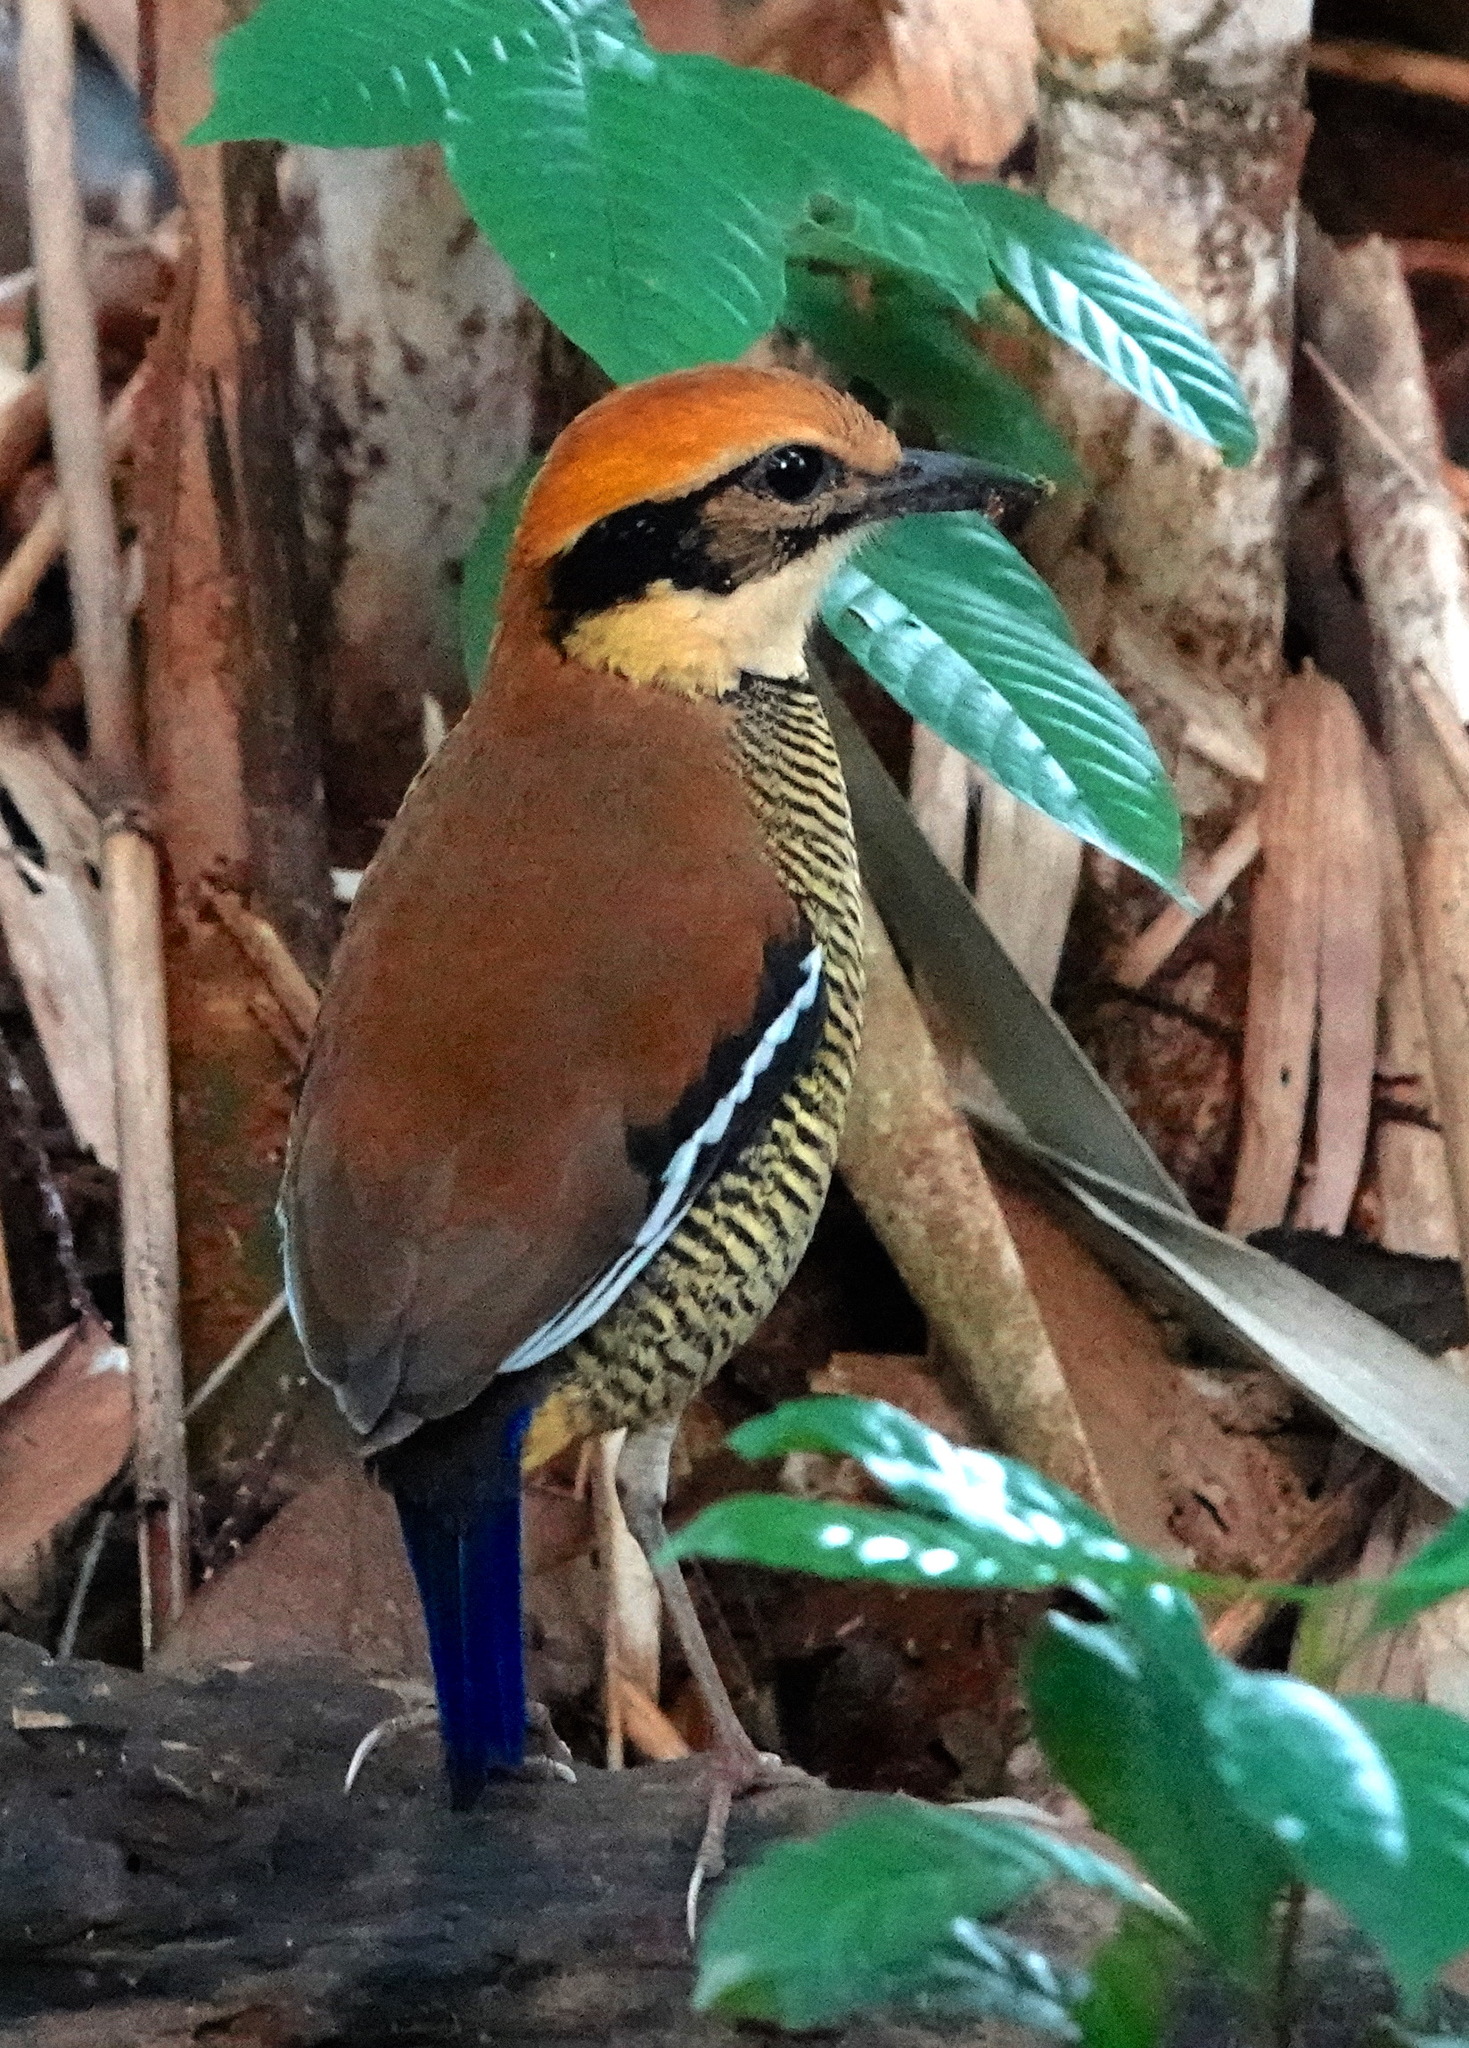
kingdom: Animalia
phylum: Chordata
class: Aves
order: Passeriformes
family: Pittidae
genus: Pitta
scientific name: Pitta guajana
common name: Banded pitta
